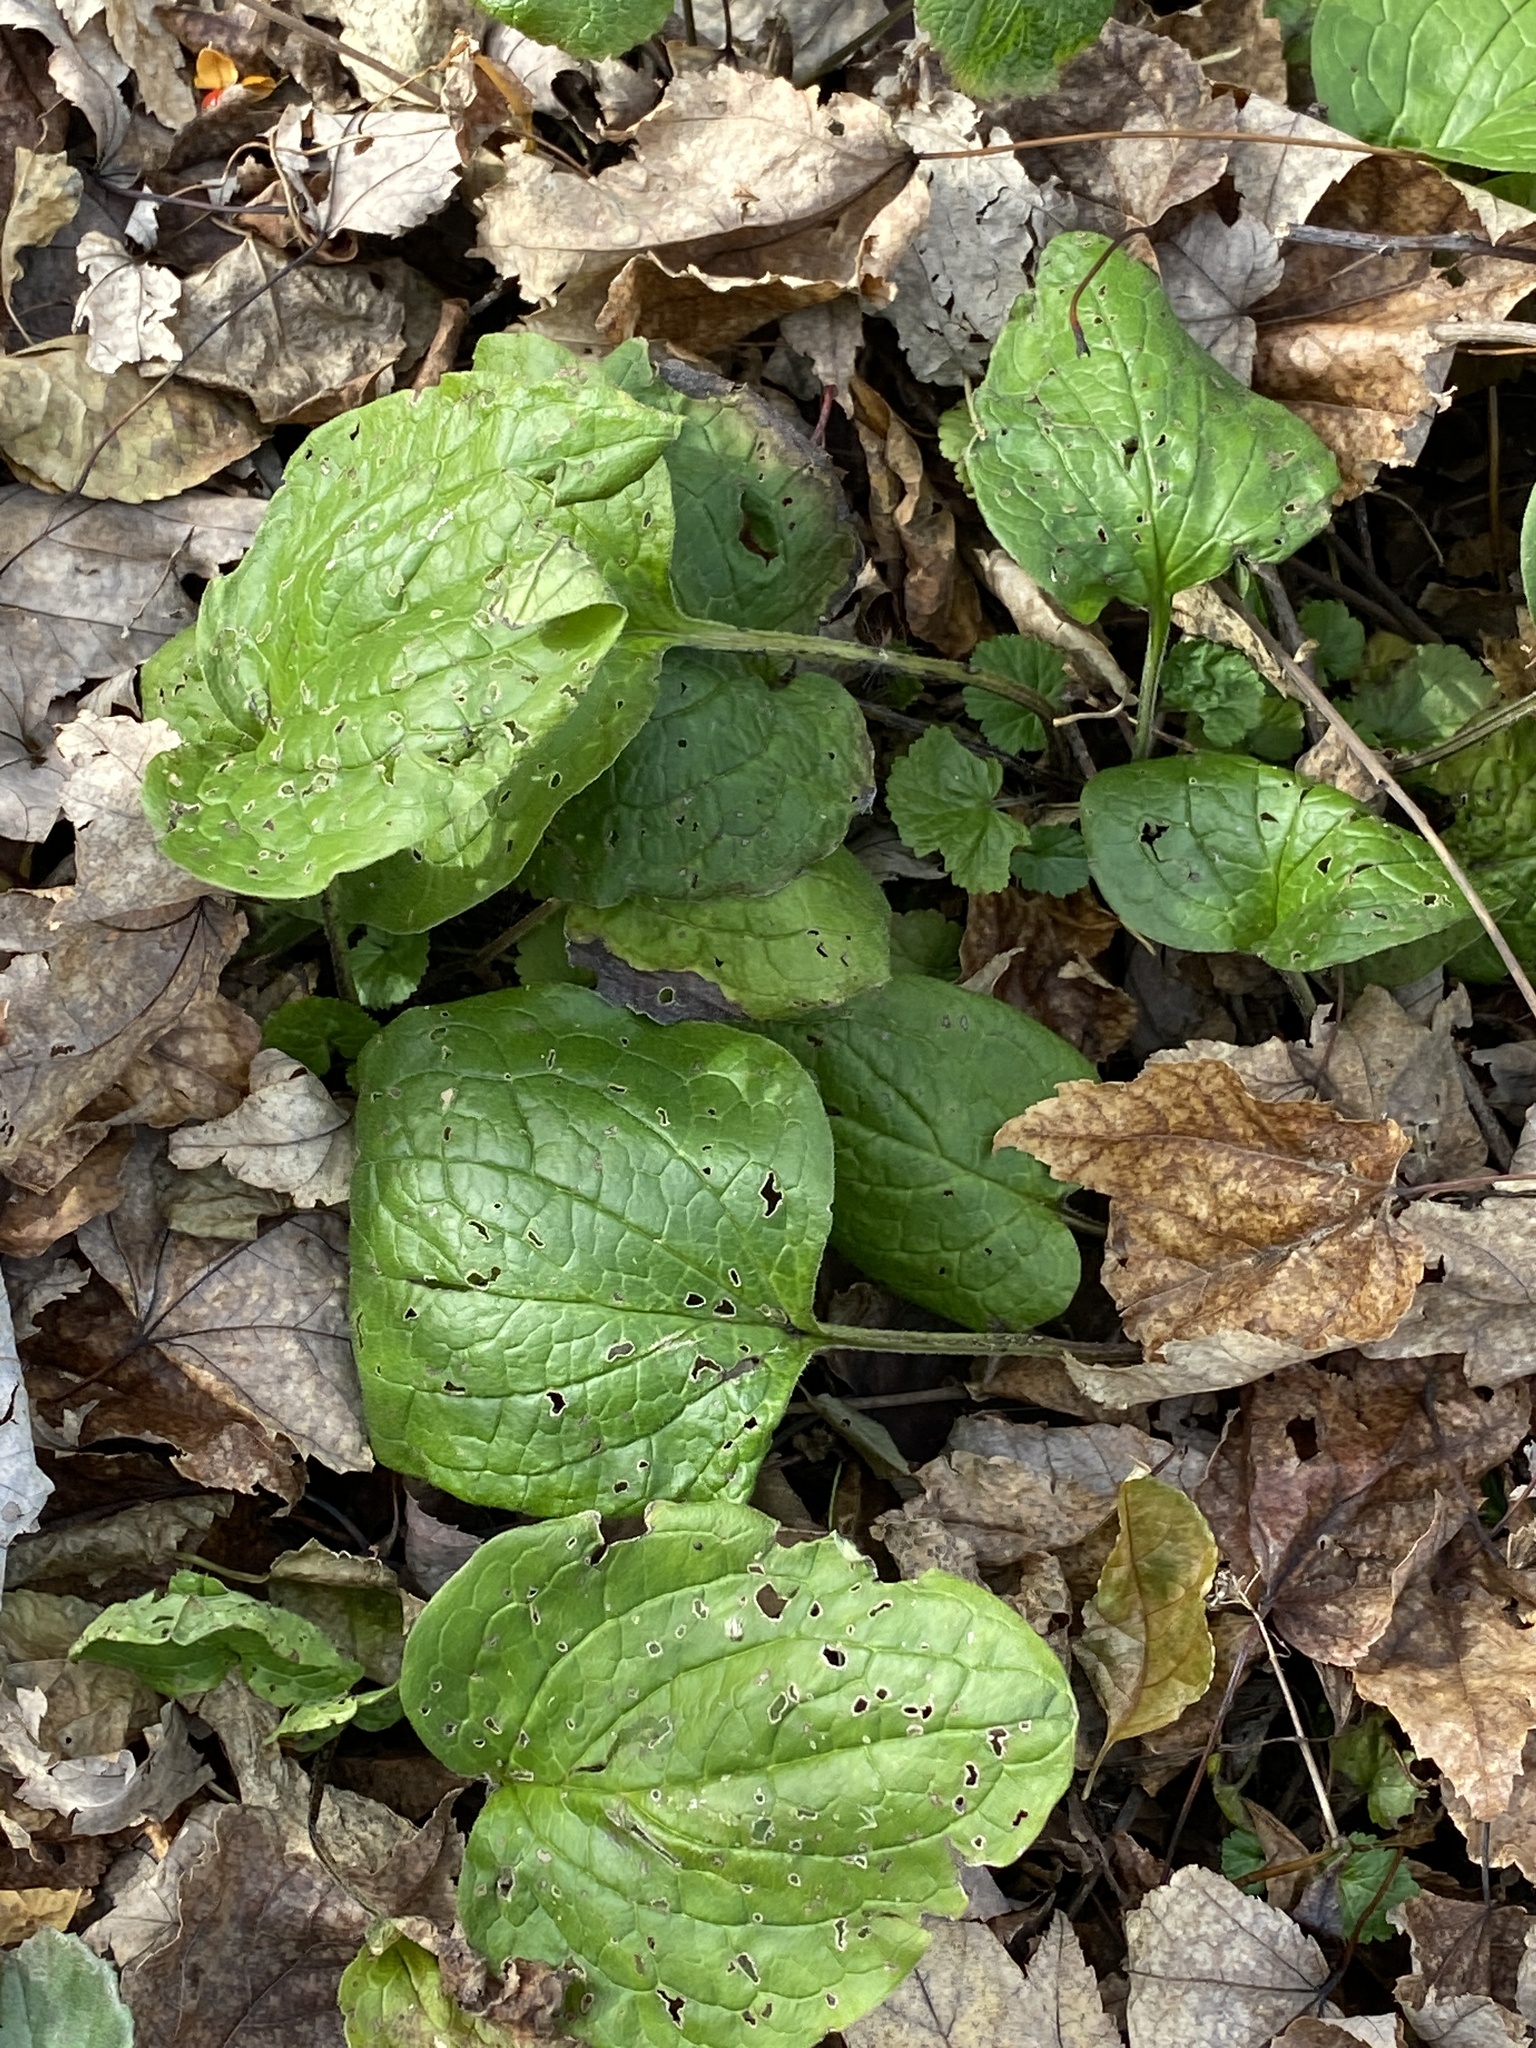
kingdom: Plantae
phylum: Tracheophyta
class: Magnoliopsida
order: Boraginales
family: Boraginaceae
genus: Hackelia
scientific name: Hackelia virginiana
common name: Beggar's-lice
